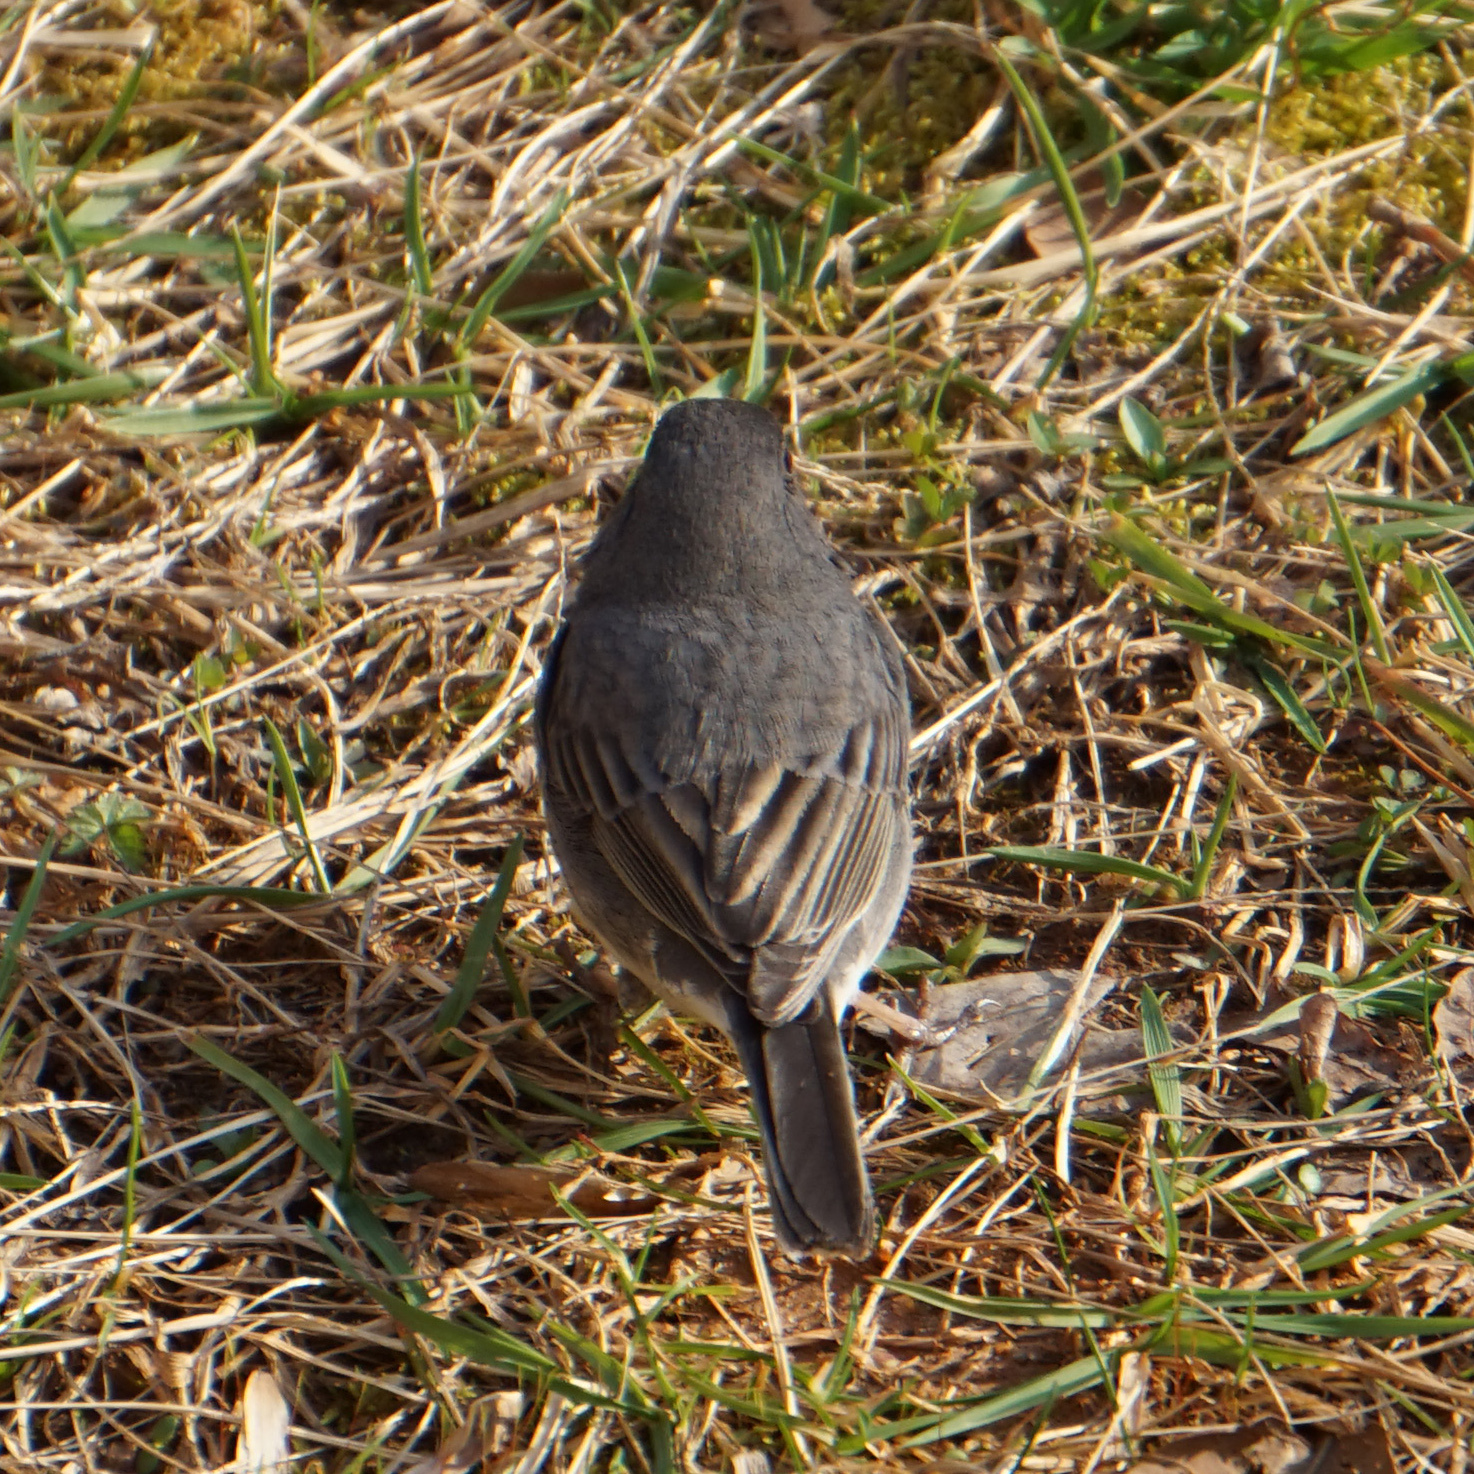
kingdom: Animalia
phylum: Chordata
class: Aves
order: Passeriformes
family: Passerellidae
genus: Junco
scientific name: Junco hyemalis
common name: Dark-eyed junco
